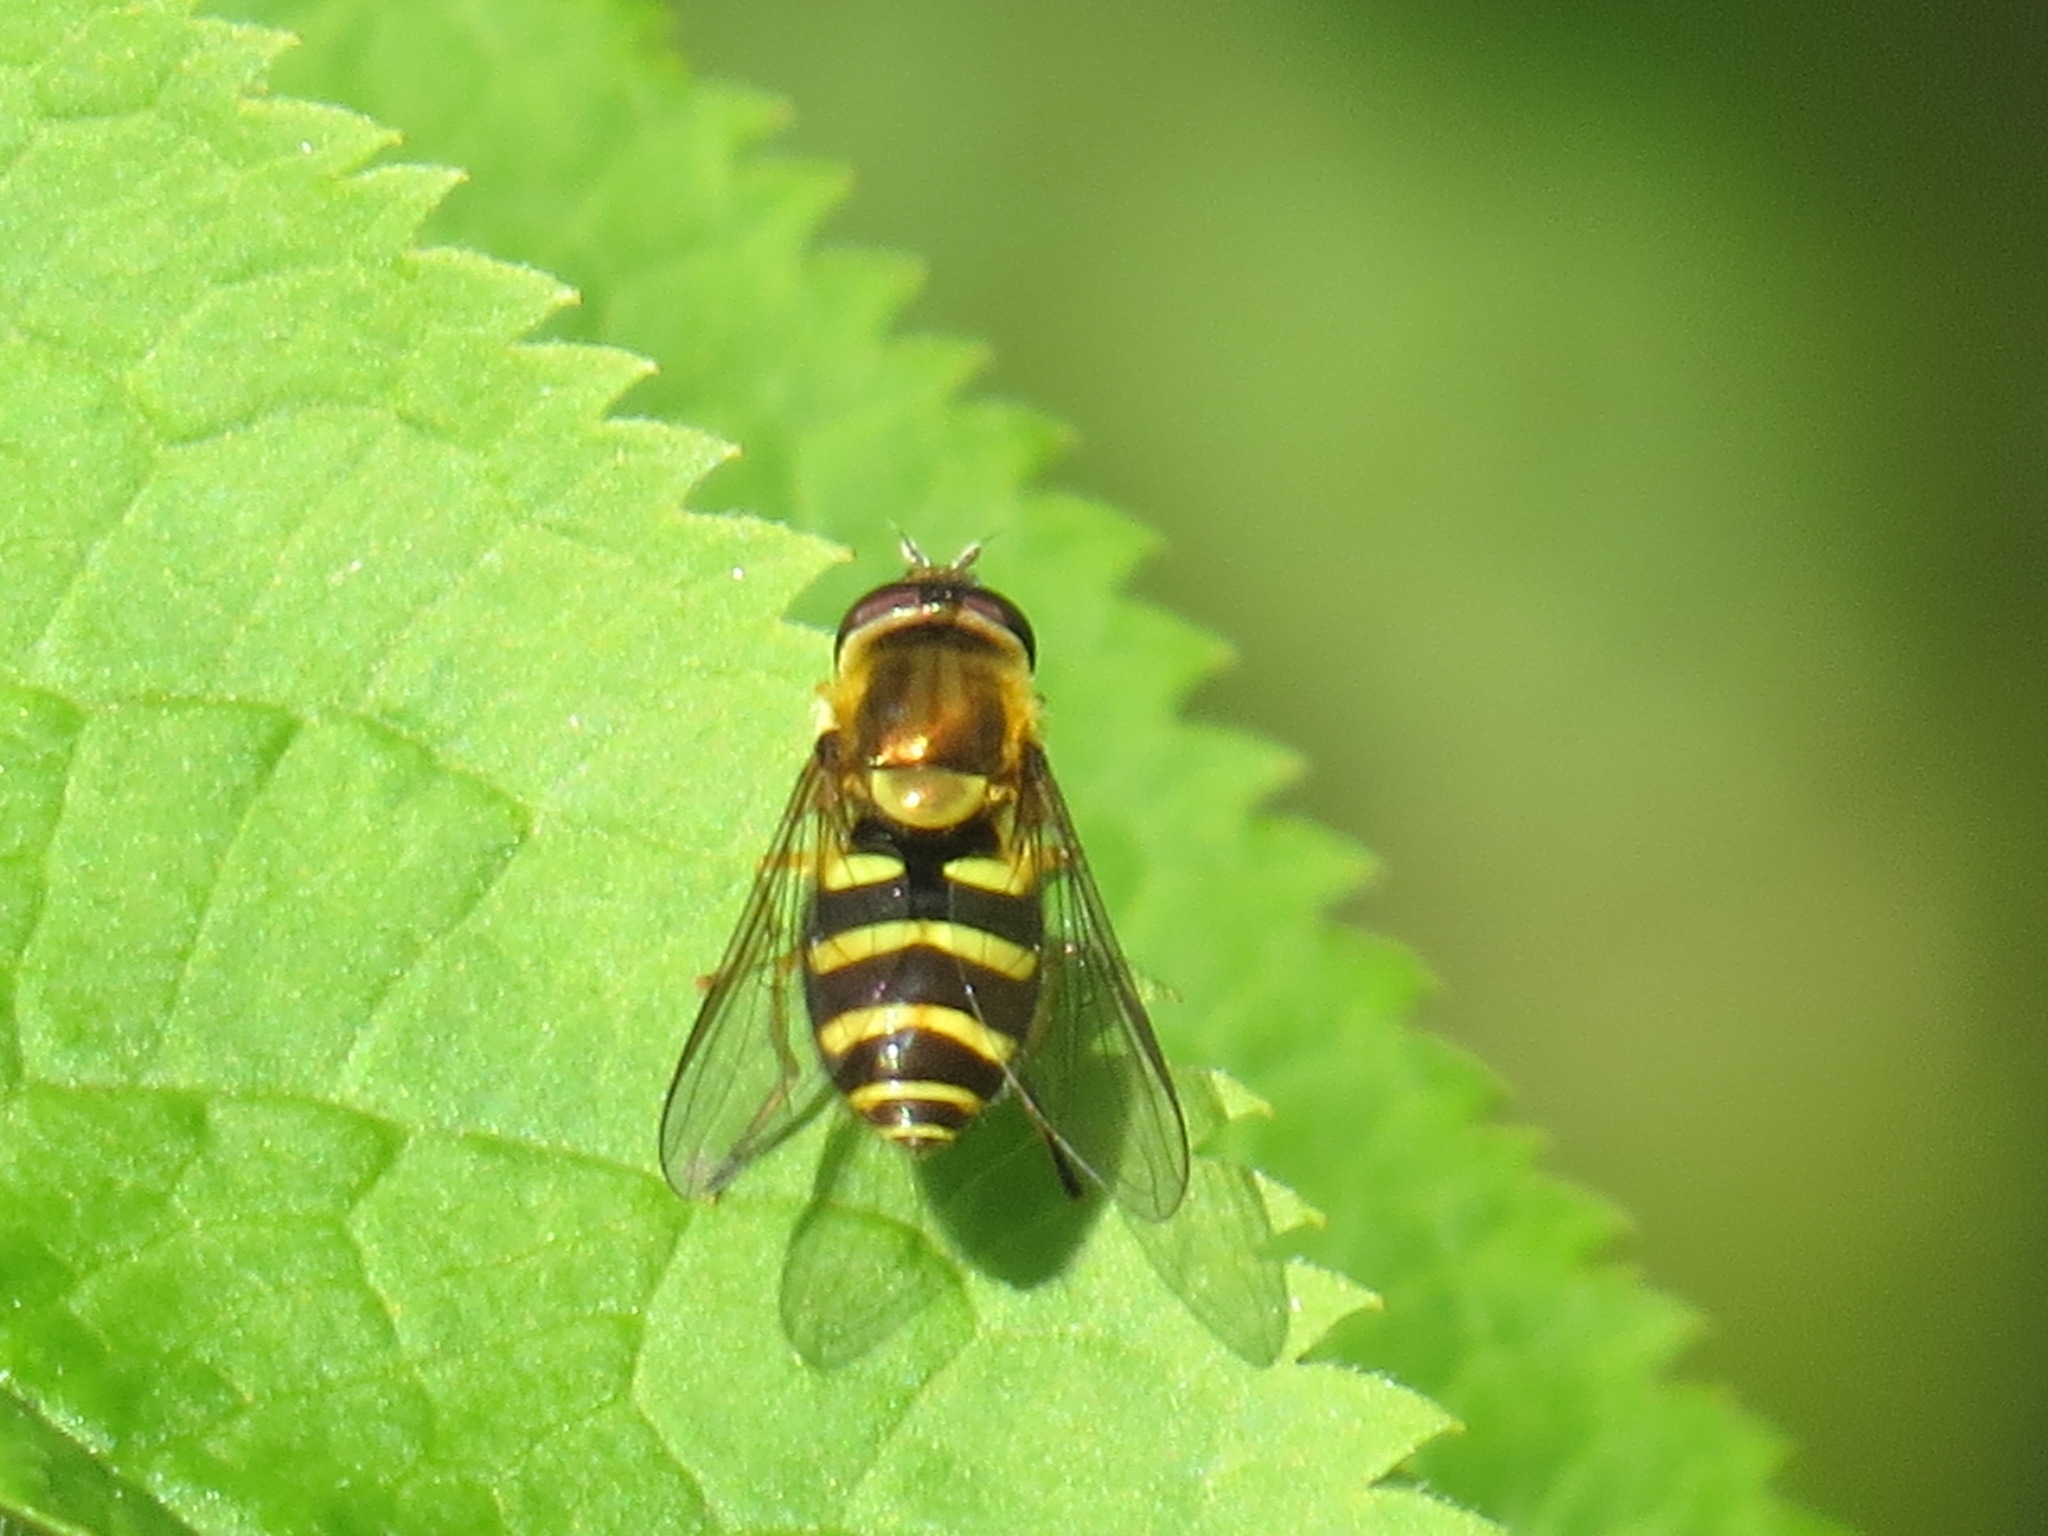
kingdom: Animalia
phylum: Arthropoda
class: Insecta
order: Diptera
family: Syrphidae
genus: Syrphus
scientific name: Syrphus opinator
